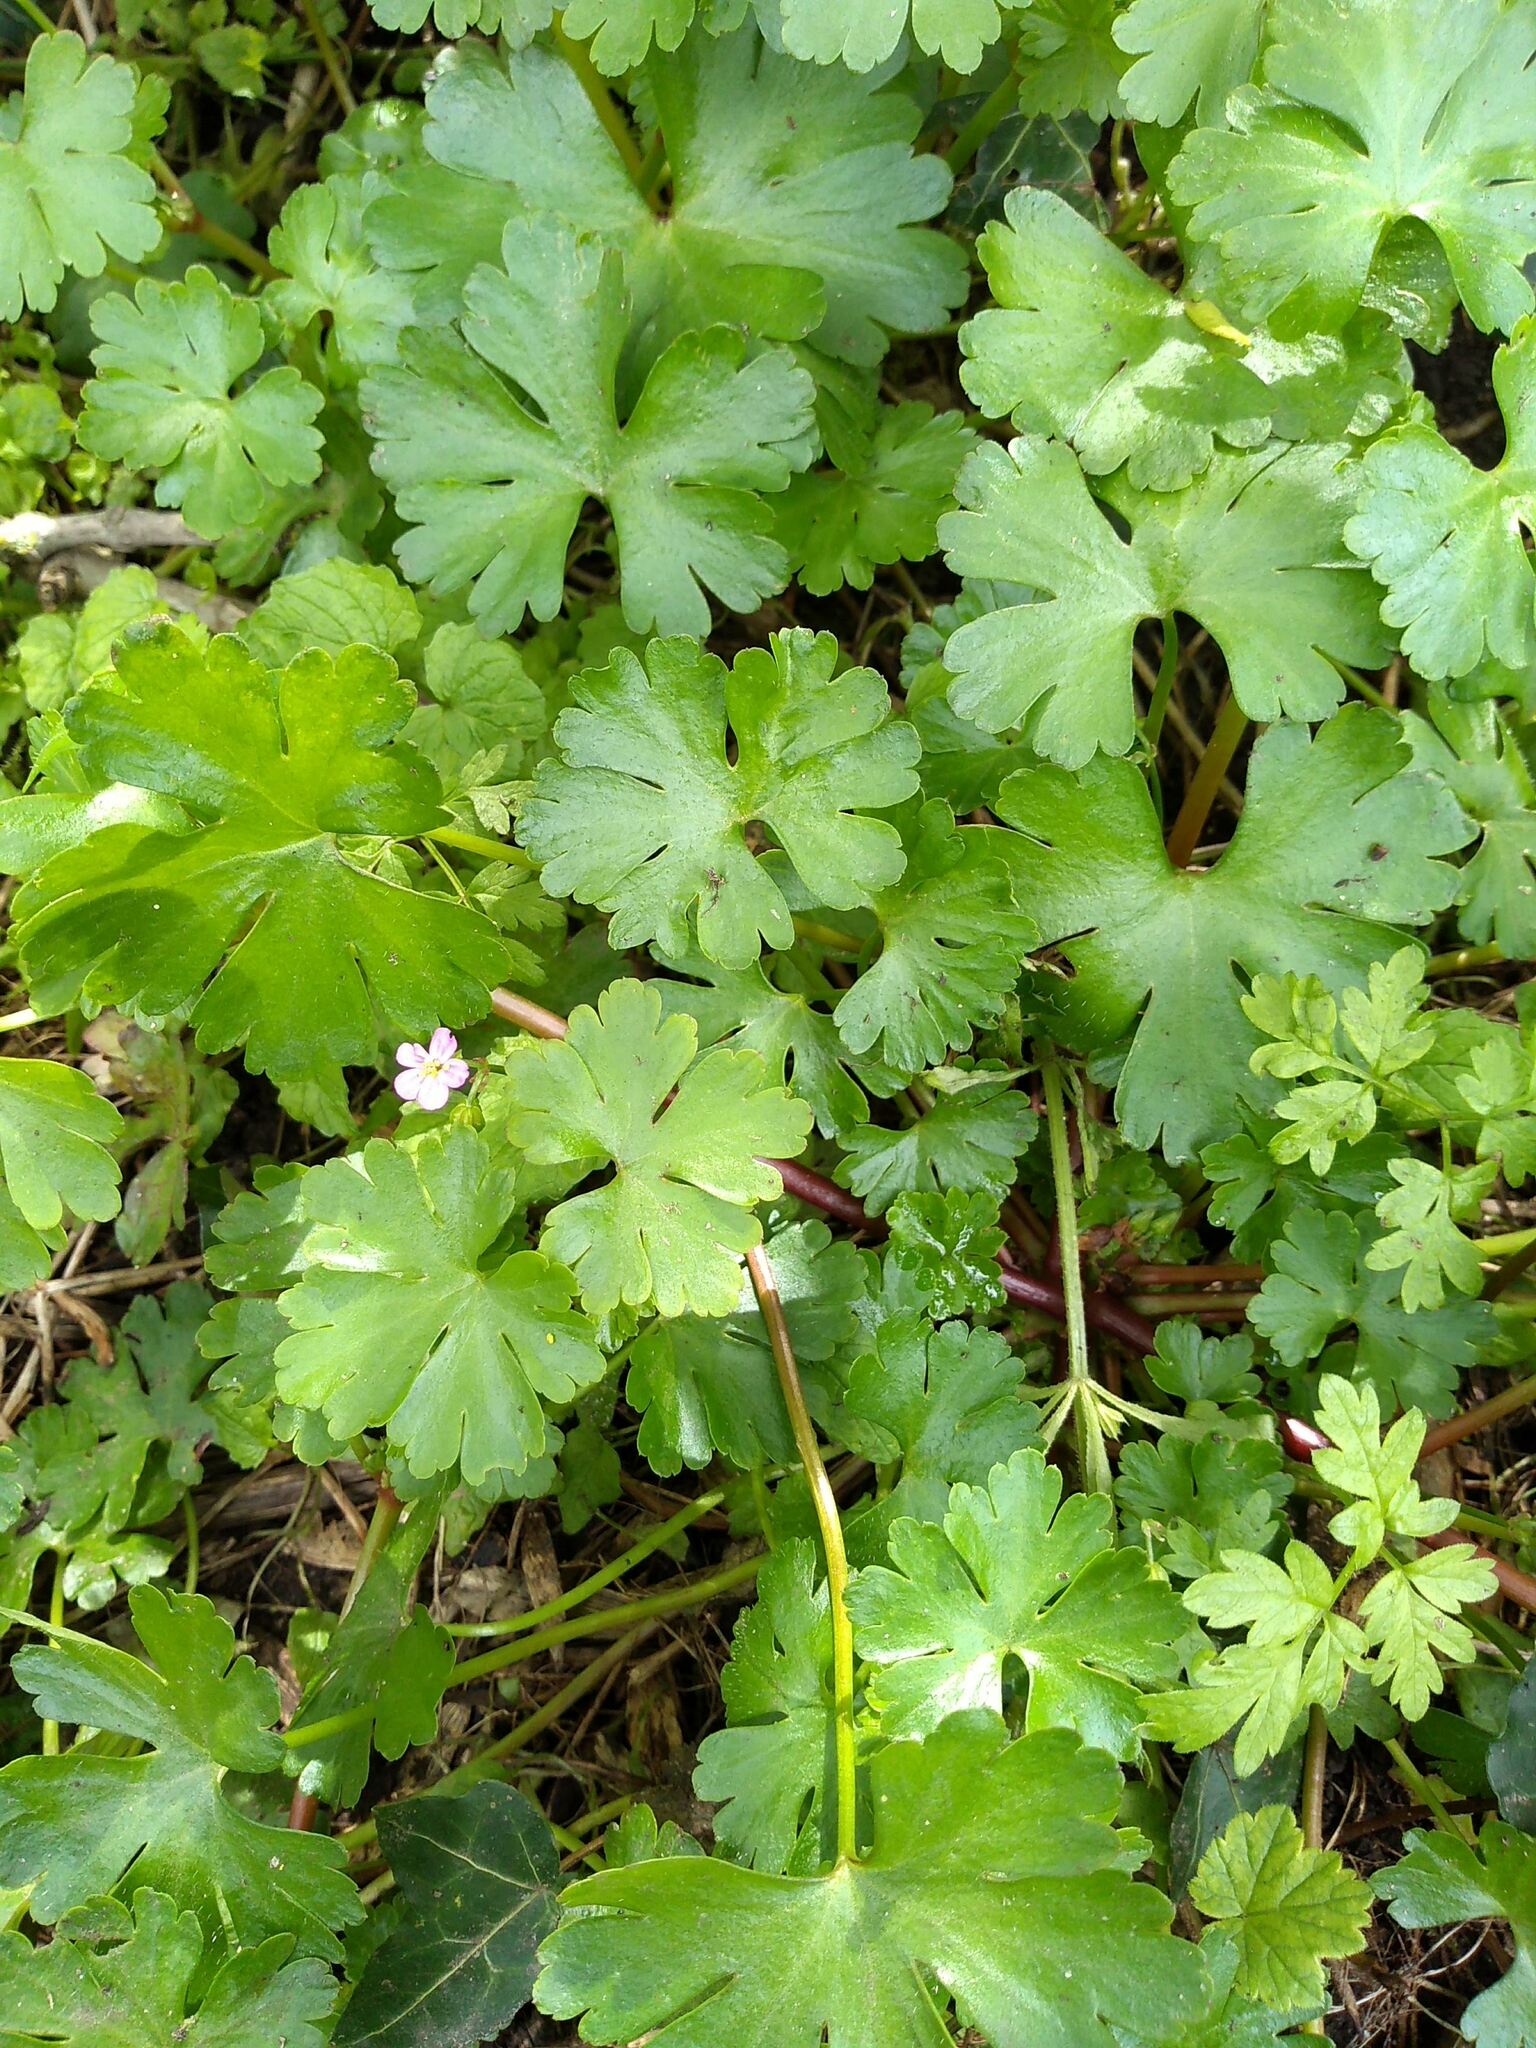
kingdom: Plantae
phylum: Tracheophyta
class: Magnoliopsida
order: Geraniales
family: Geraniaceae
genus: Geranium
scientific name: Geranium lucidum
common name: Shining crane's-bill
